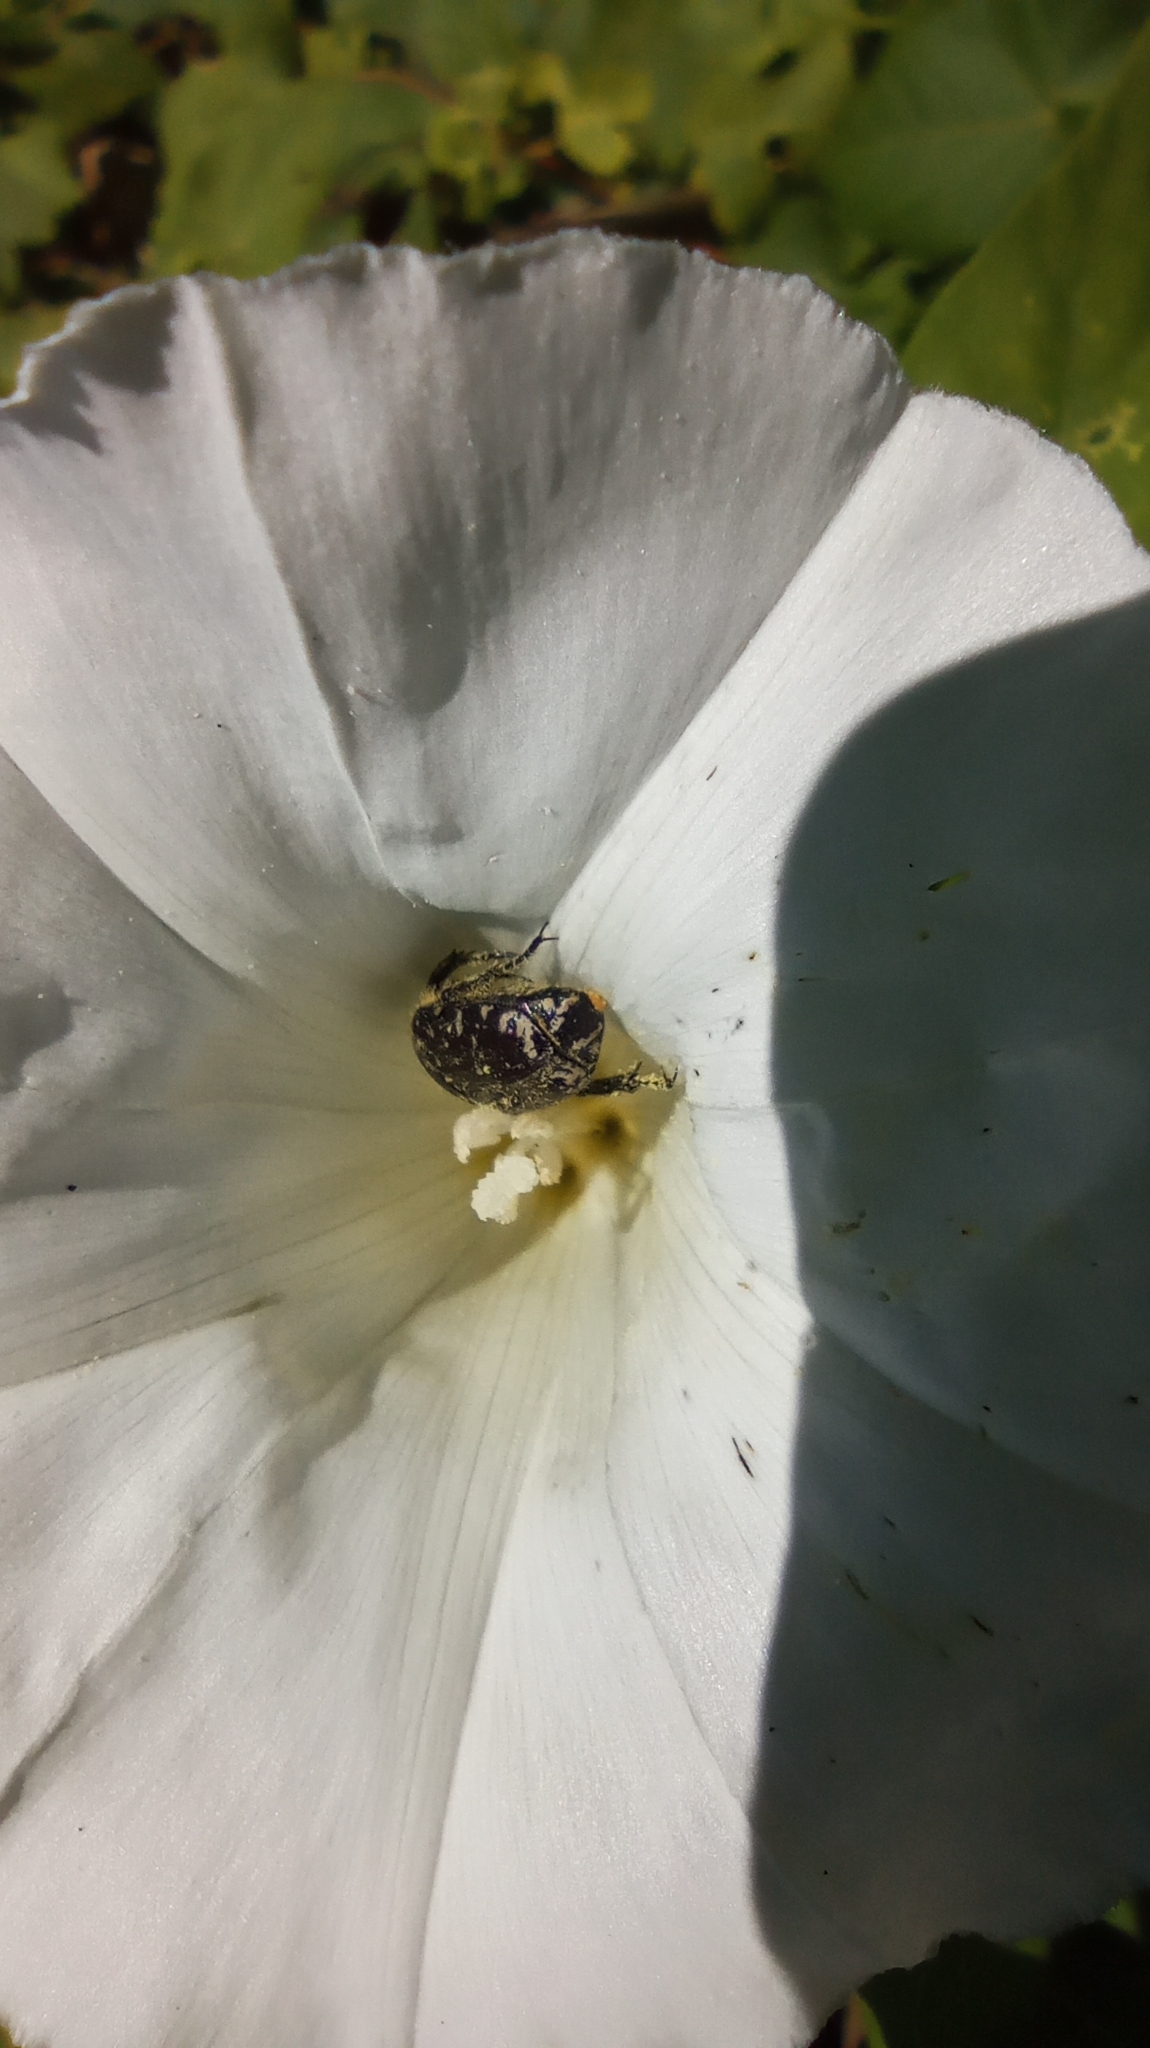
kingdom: Animalia
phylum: Arthropoda
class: Insecta
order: Coleoptera
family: Scarabaeidae
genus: Oxythyrea
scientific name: Oxythyrea funesta
